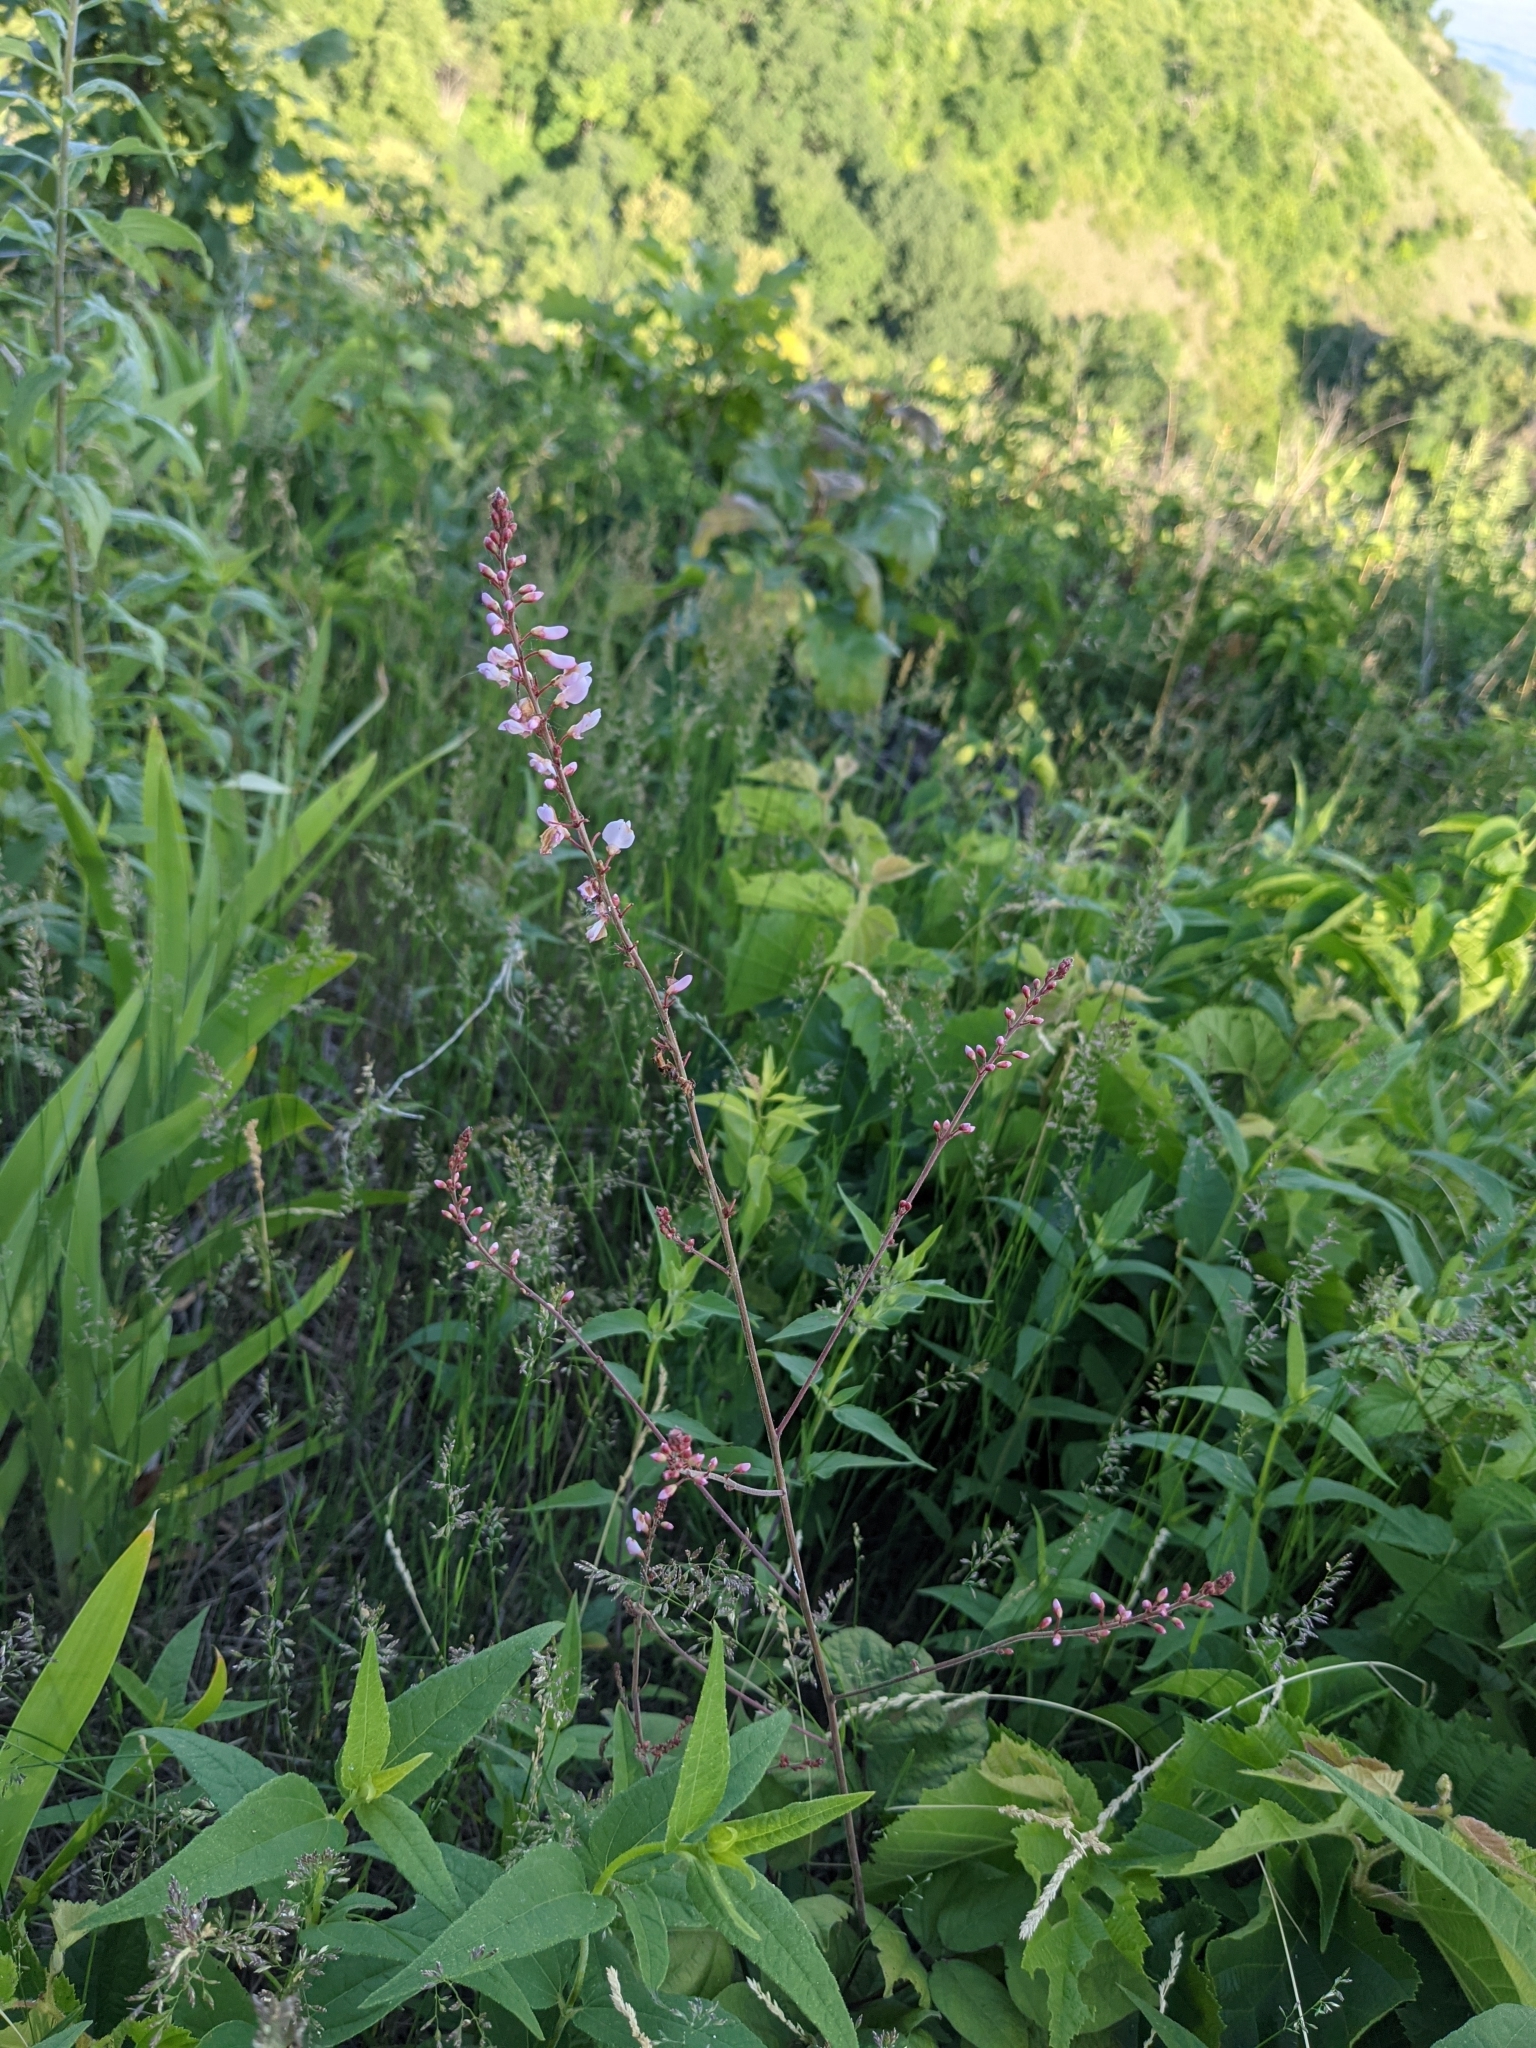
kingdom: Plantae
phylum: Tracheophyta
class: Magnoliopsida
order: Fabales
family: Fabaceae
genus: Hylodesmum
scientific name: Hylodesmum glutinosum
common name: Clustered-leaved tick-trefoil
